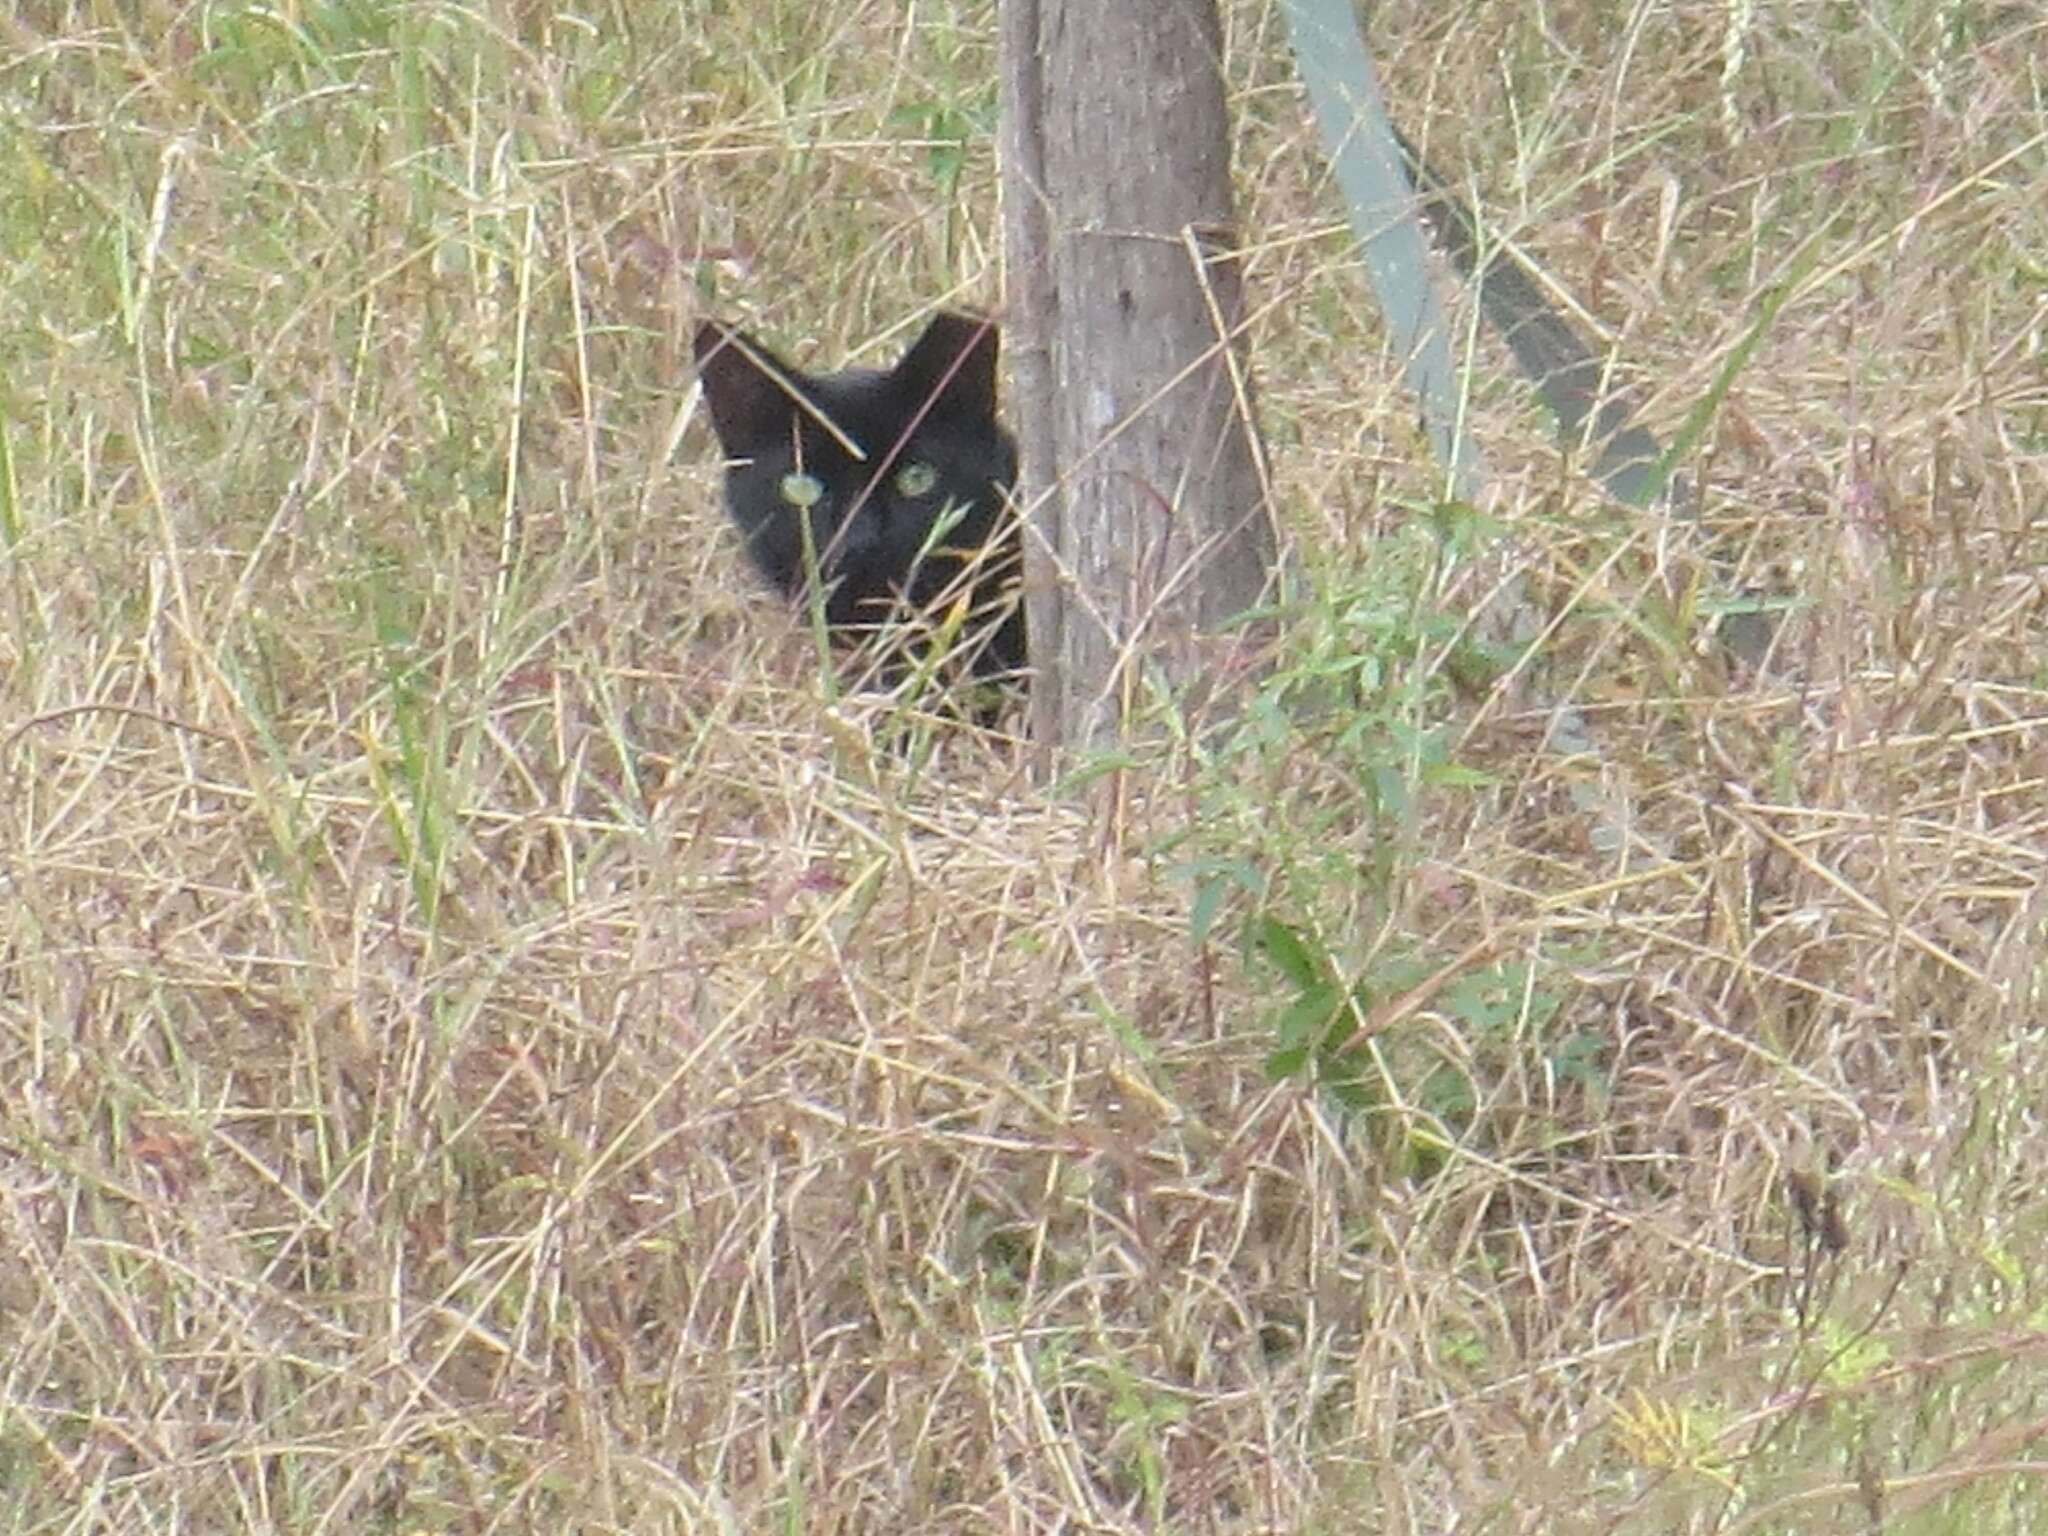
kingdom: Animalia
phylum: Chordata
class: Mammalia
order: Carnivora
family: Felidae
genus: Felis
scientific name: Felis catus
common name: Domestic cat
